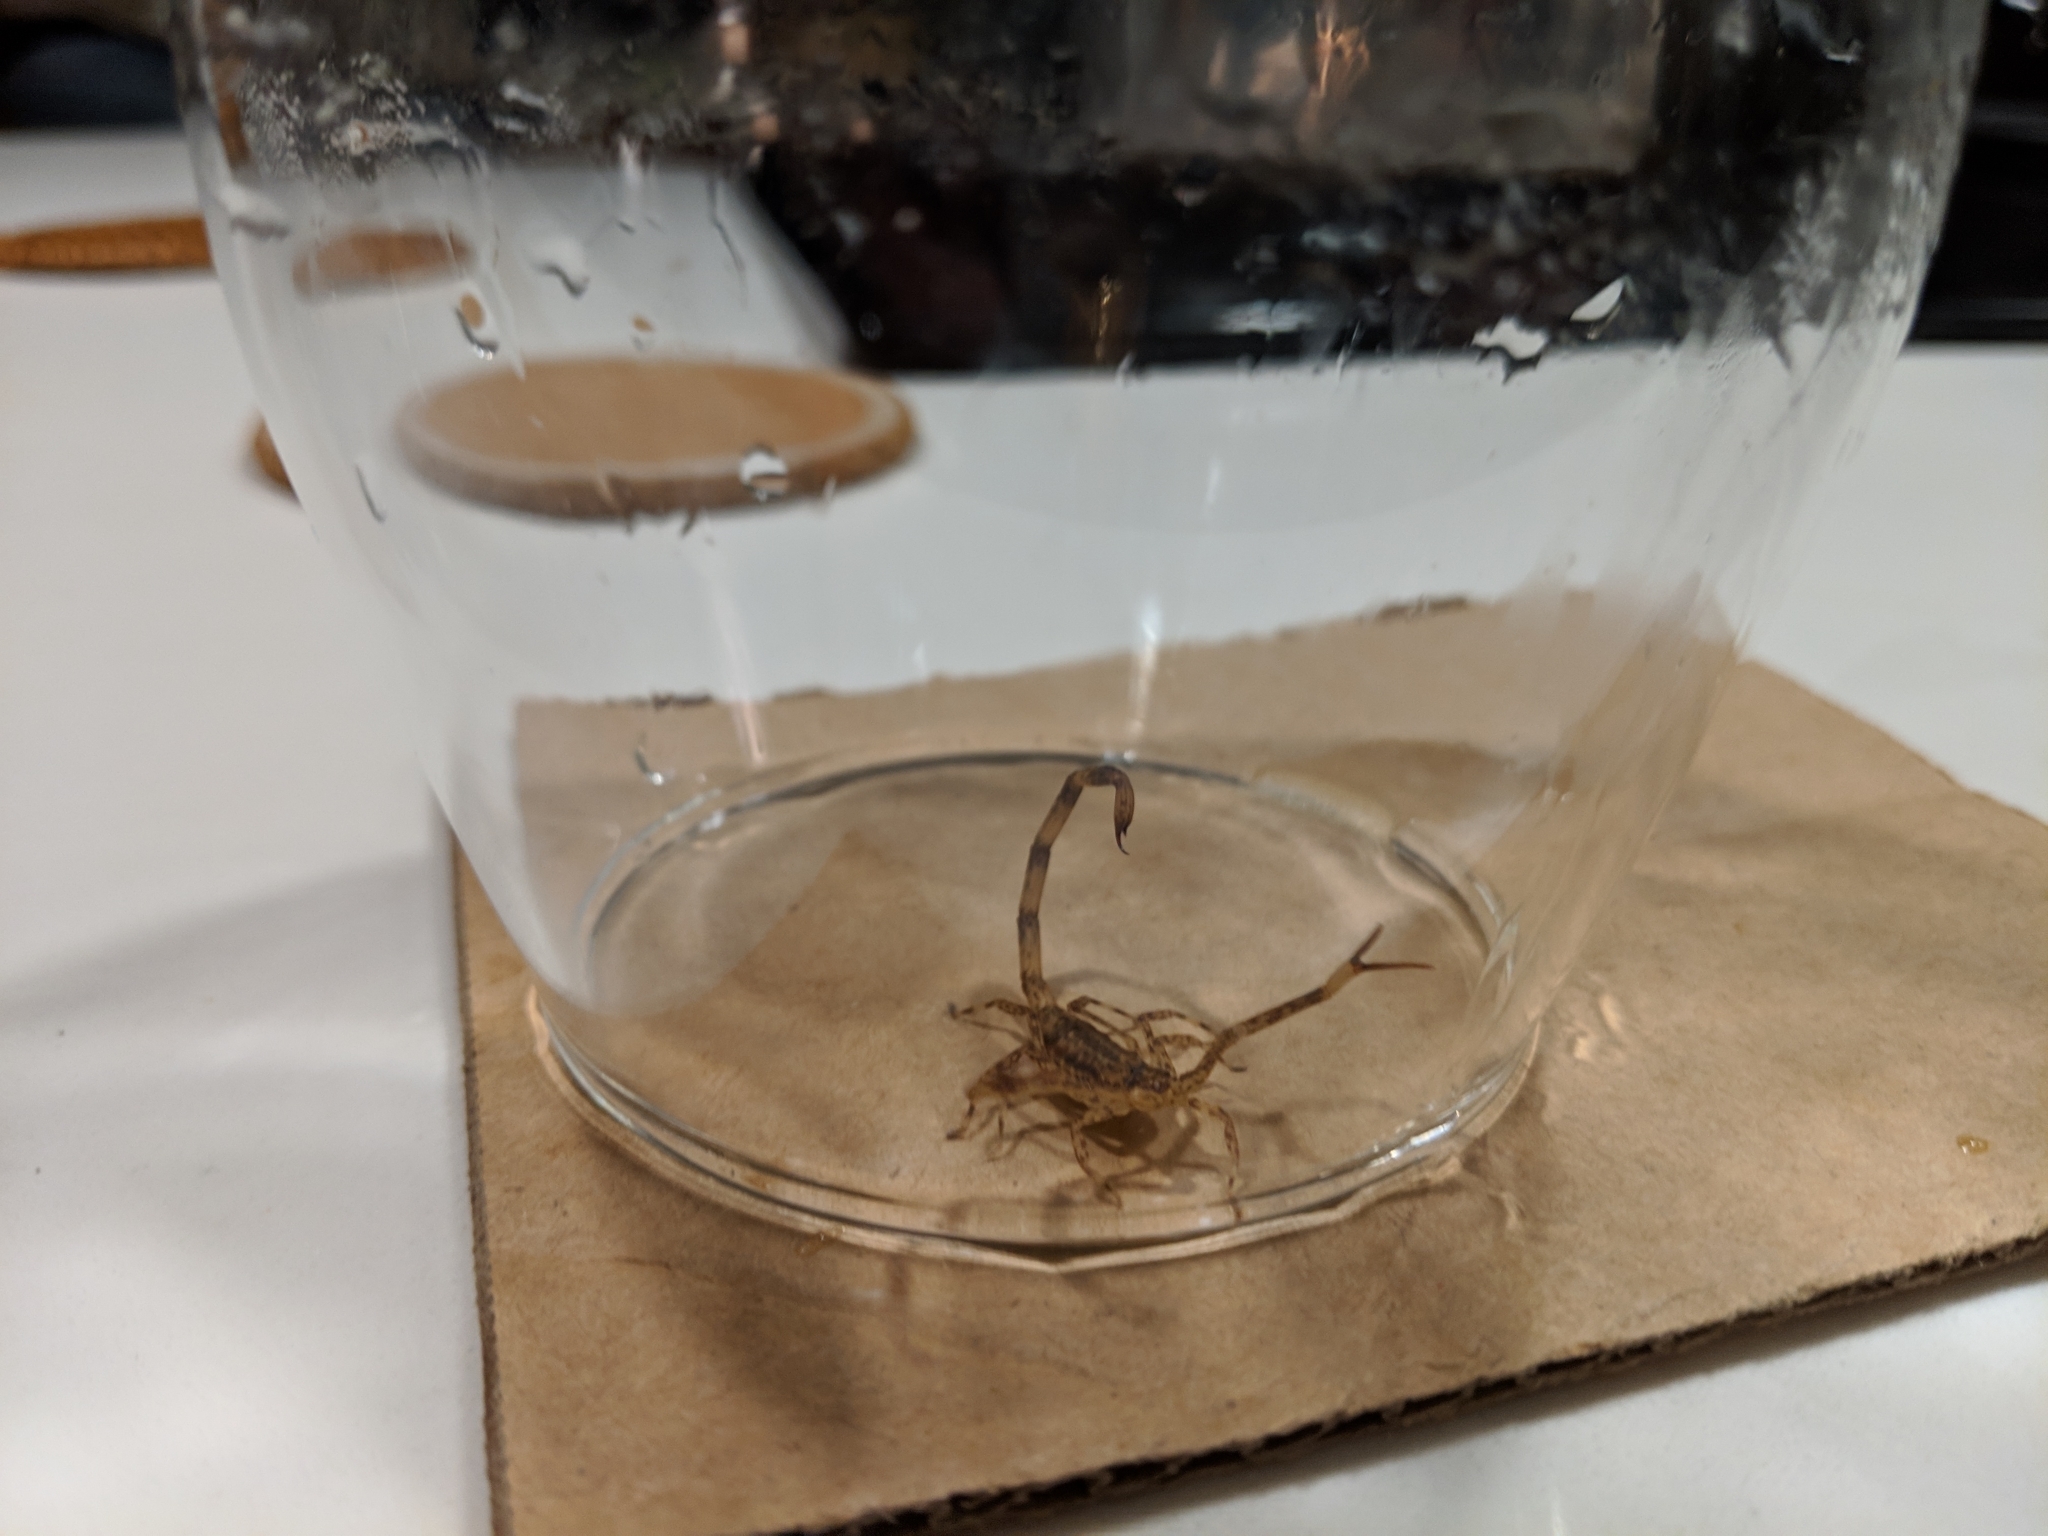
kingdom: Animalia
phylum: Arthropoda
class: Arachnida
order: Scorpiones
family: Buthidae
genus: Isometrus
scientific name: Isometrus maculatus
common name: Scorpions
